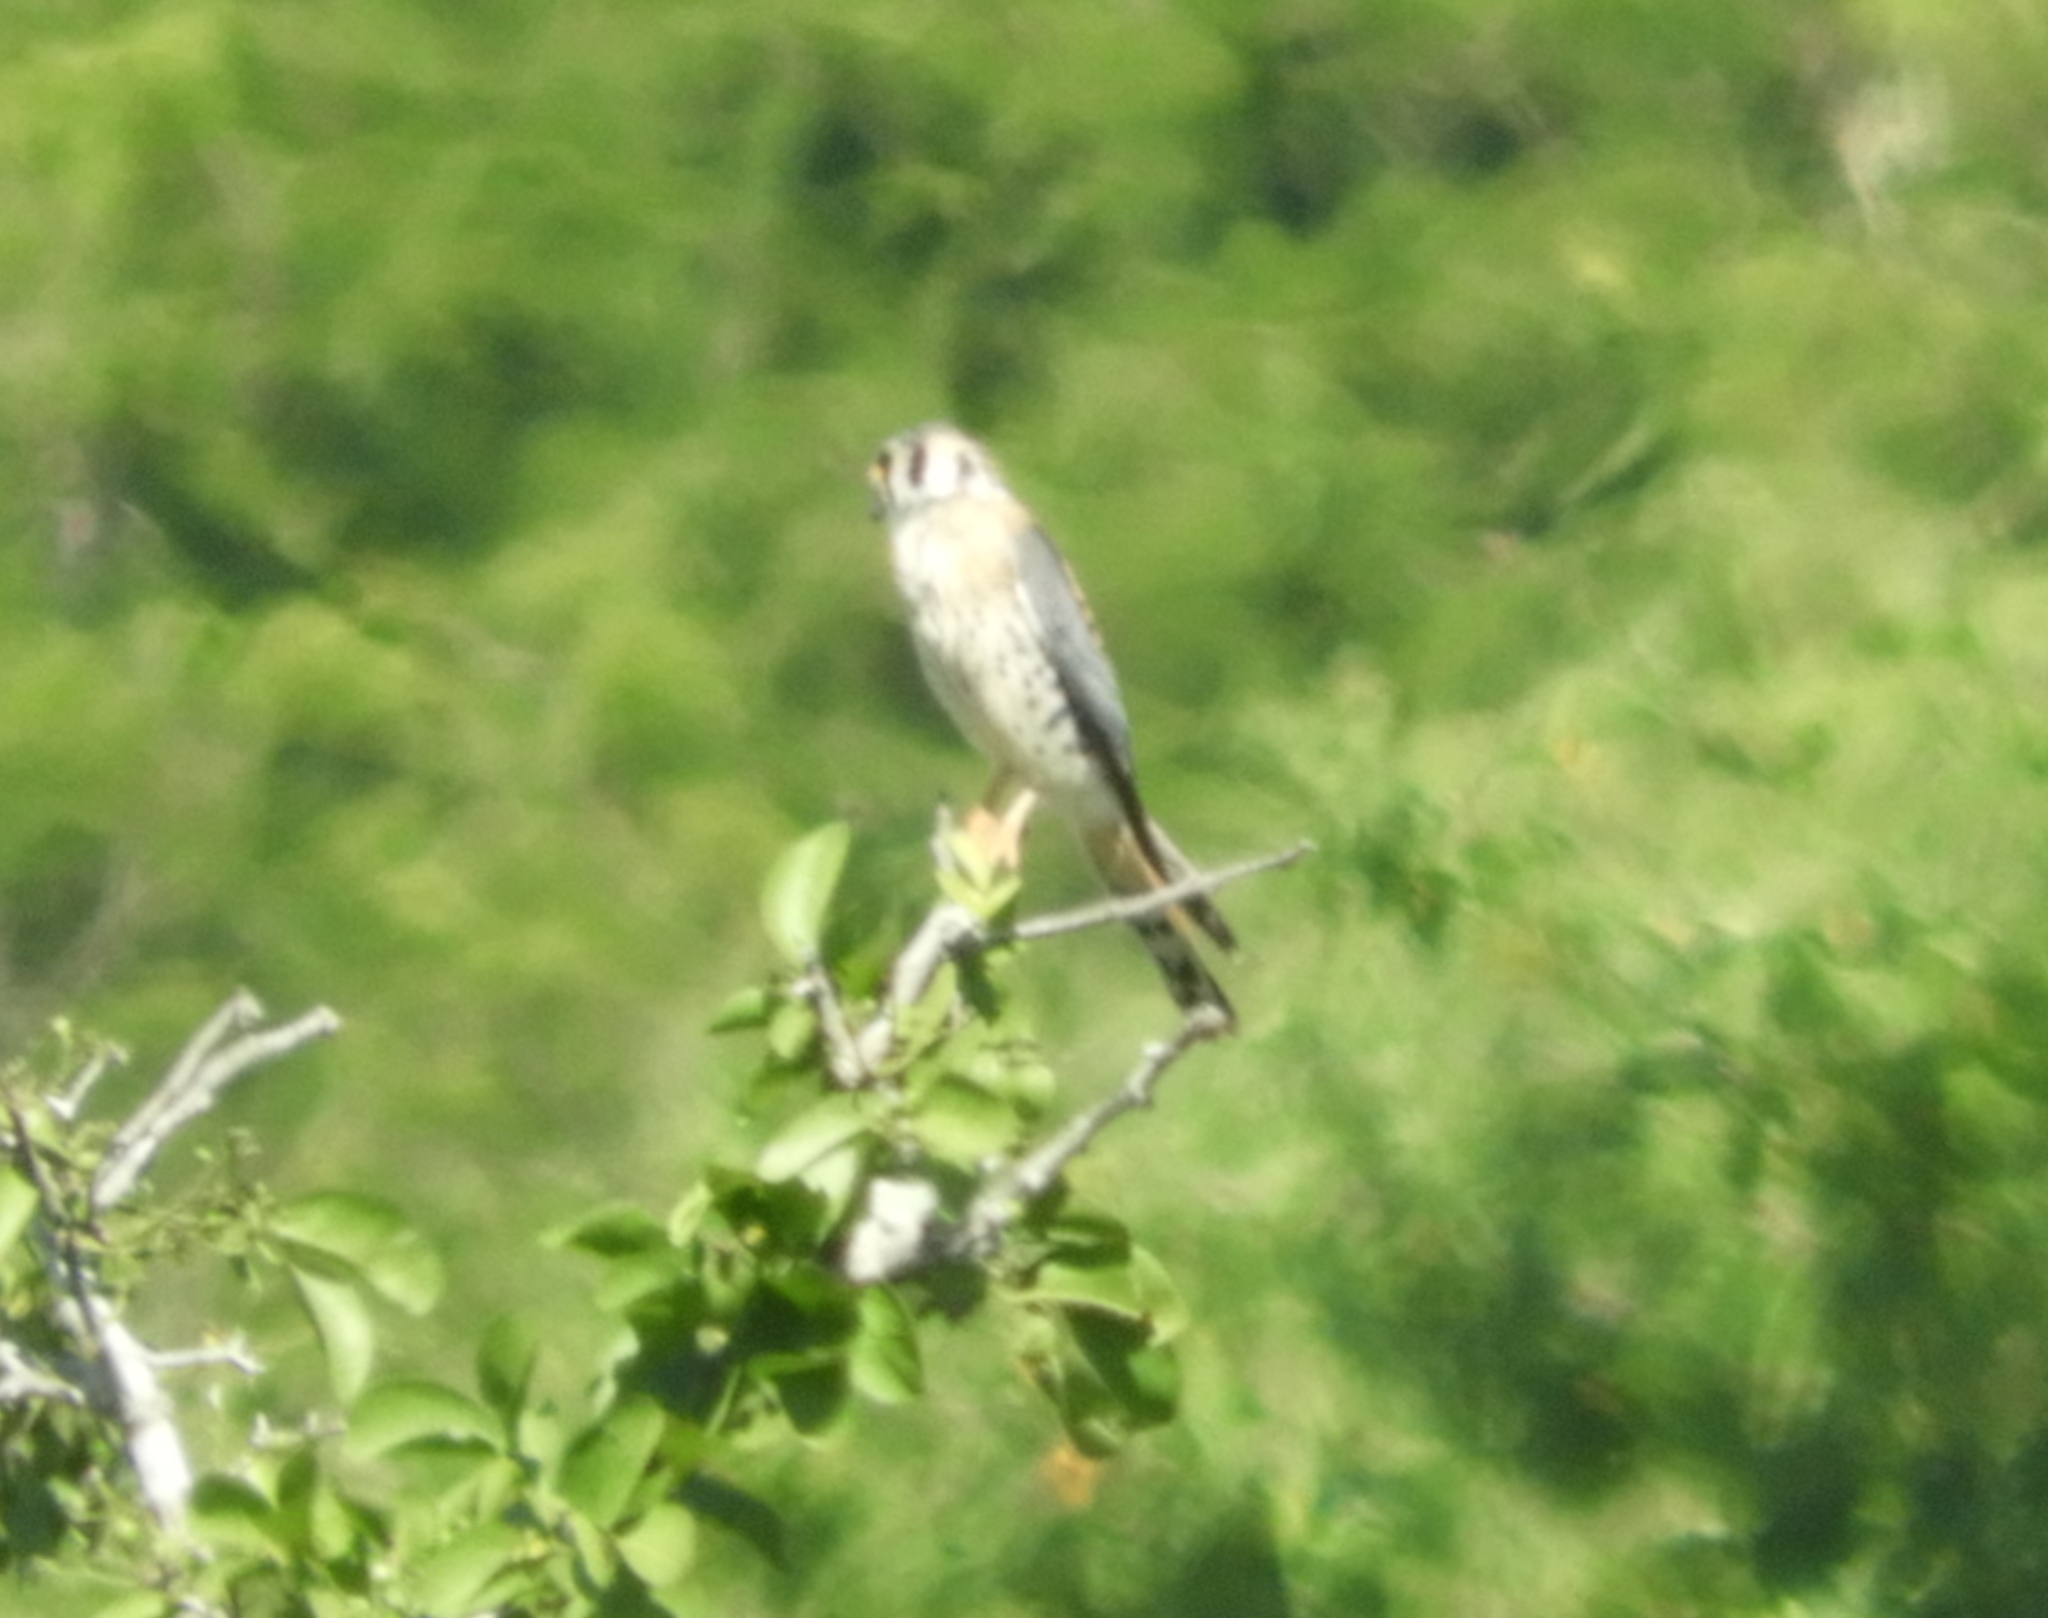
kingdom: Animalia
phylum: Chordata
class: Aves
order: Falconiformes
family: Falconidae
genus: Falco
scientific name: Falco sparverius
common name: American kestrel
